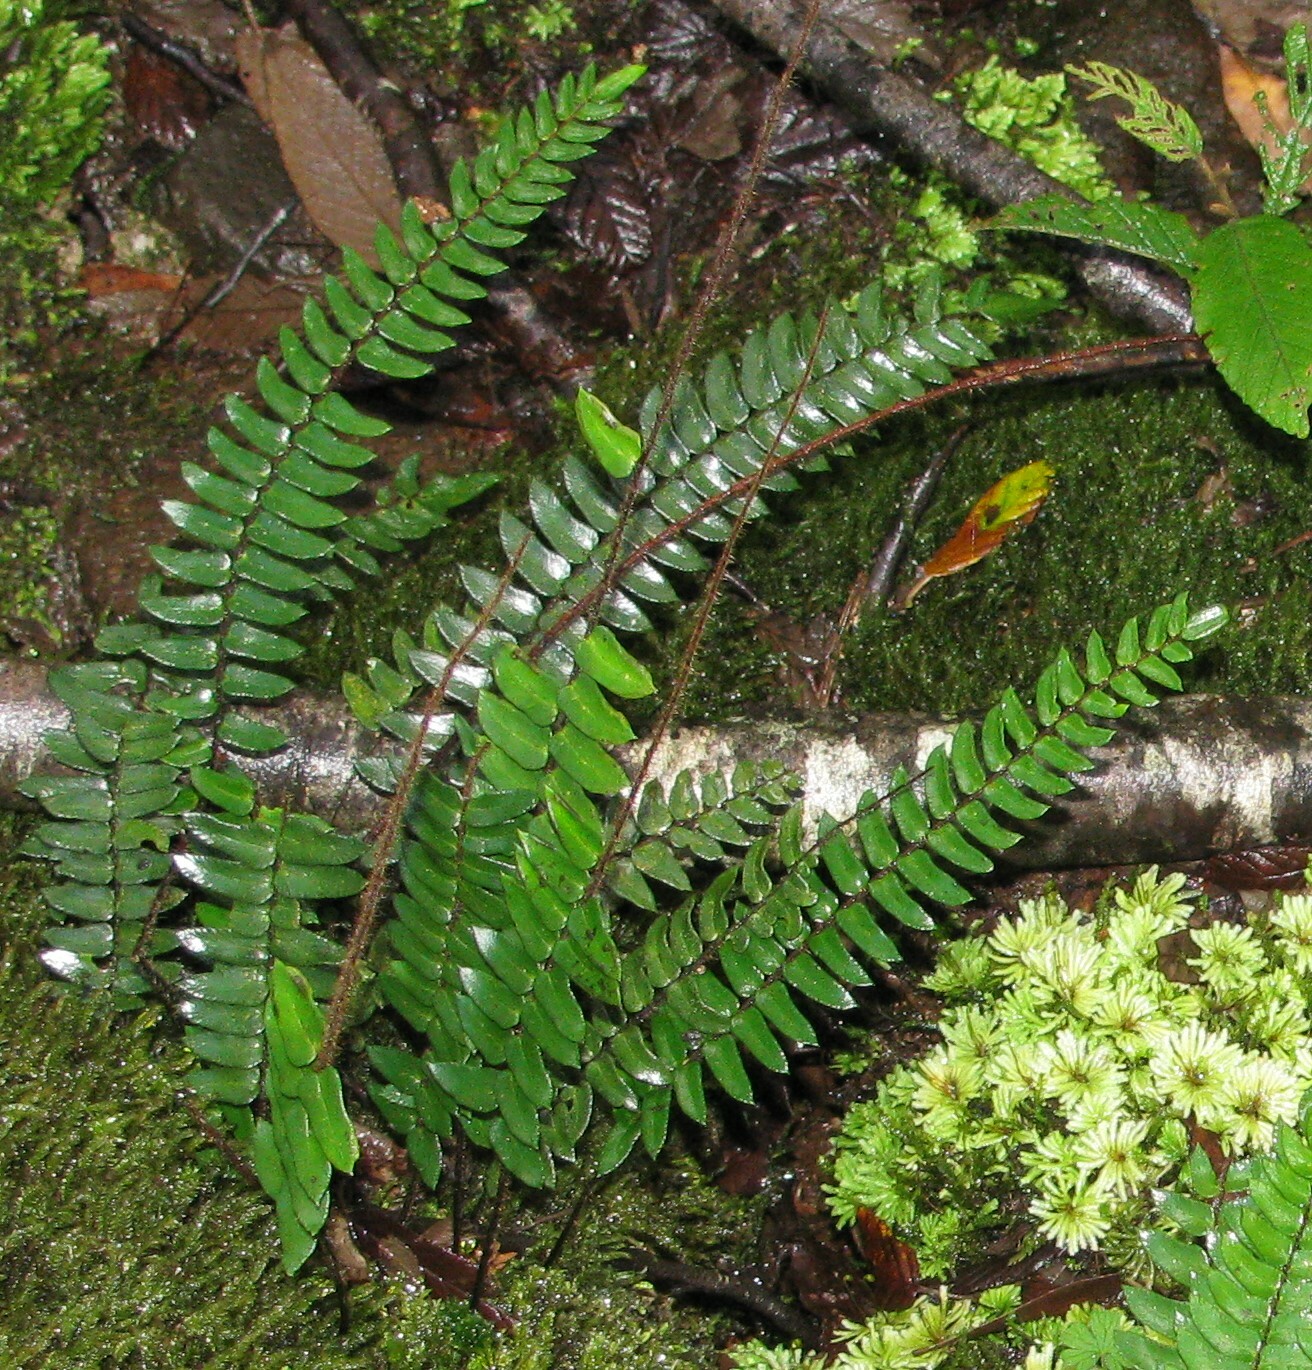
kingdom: Plantae
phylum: Tracheophyta
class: Polypodiopsida
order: Polypodiales
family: Pteridaceae
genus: Pellaea
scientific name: Pellaea falcata
